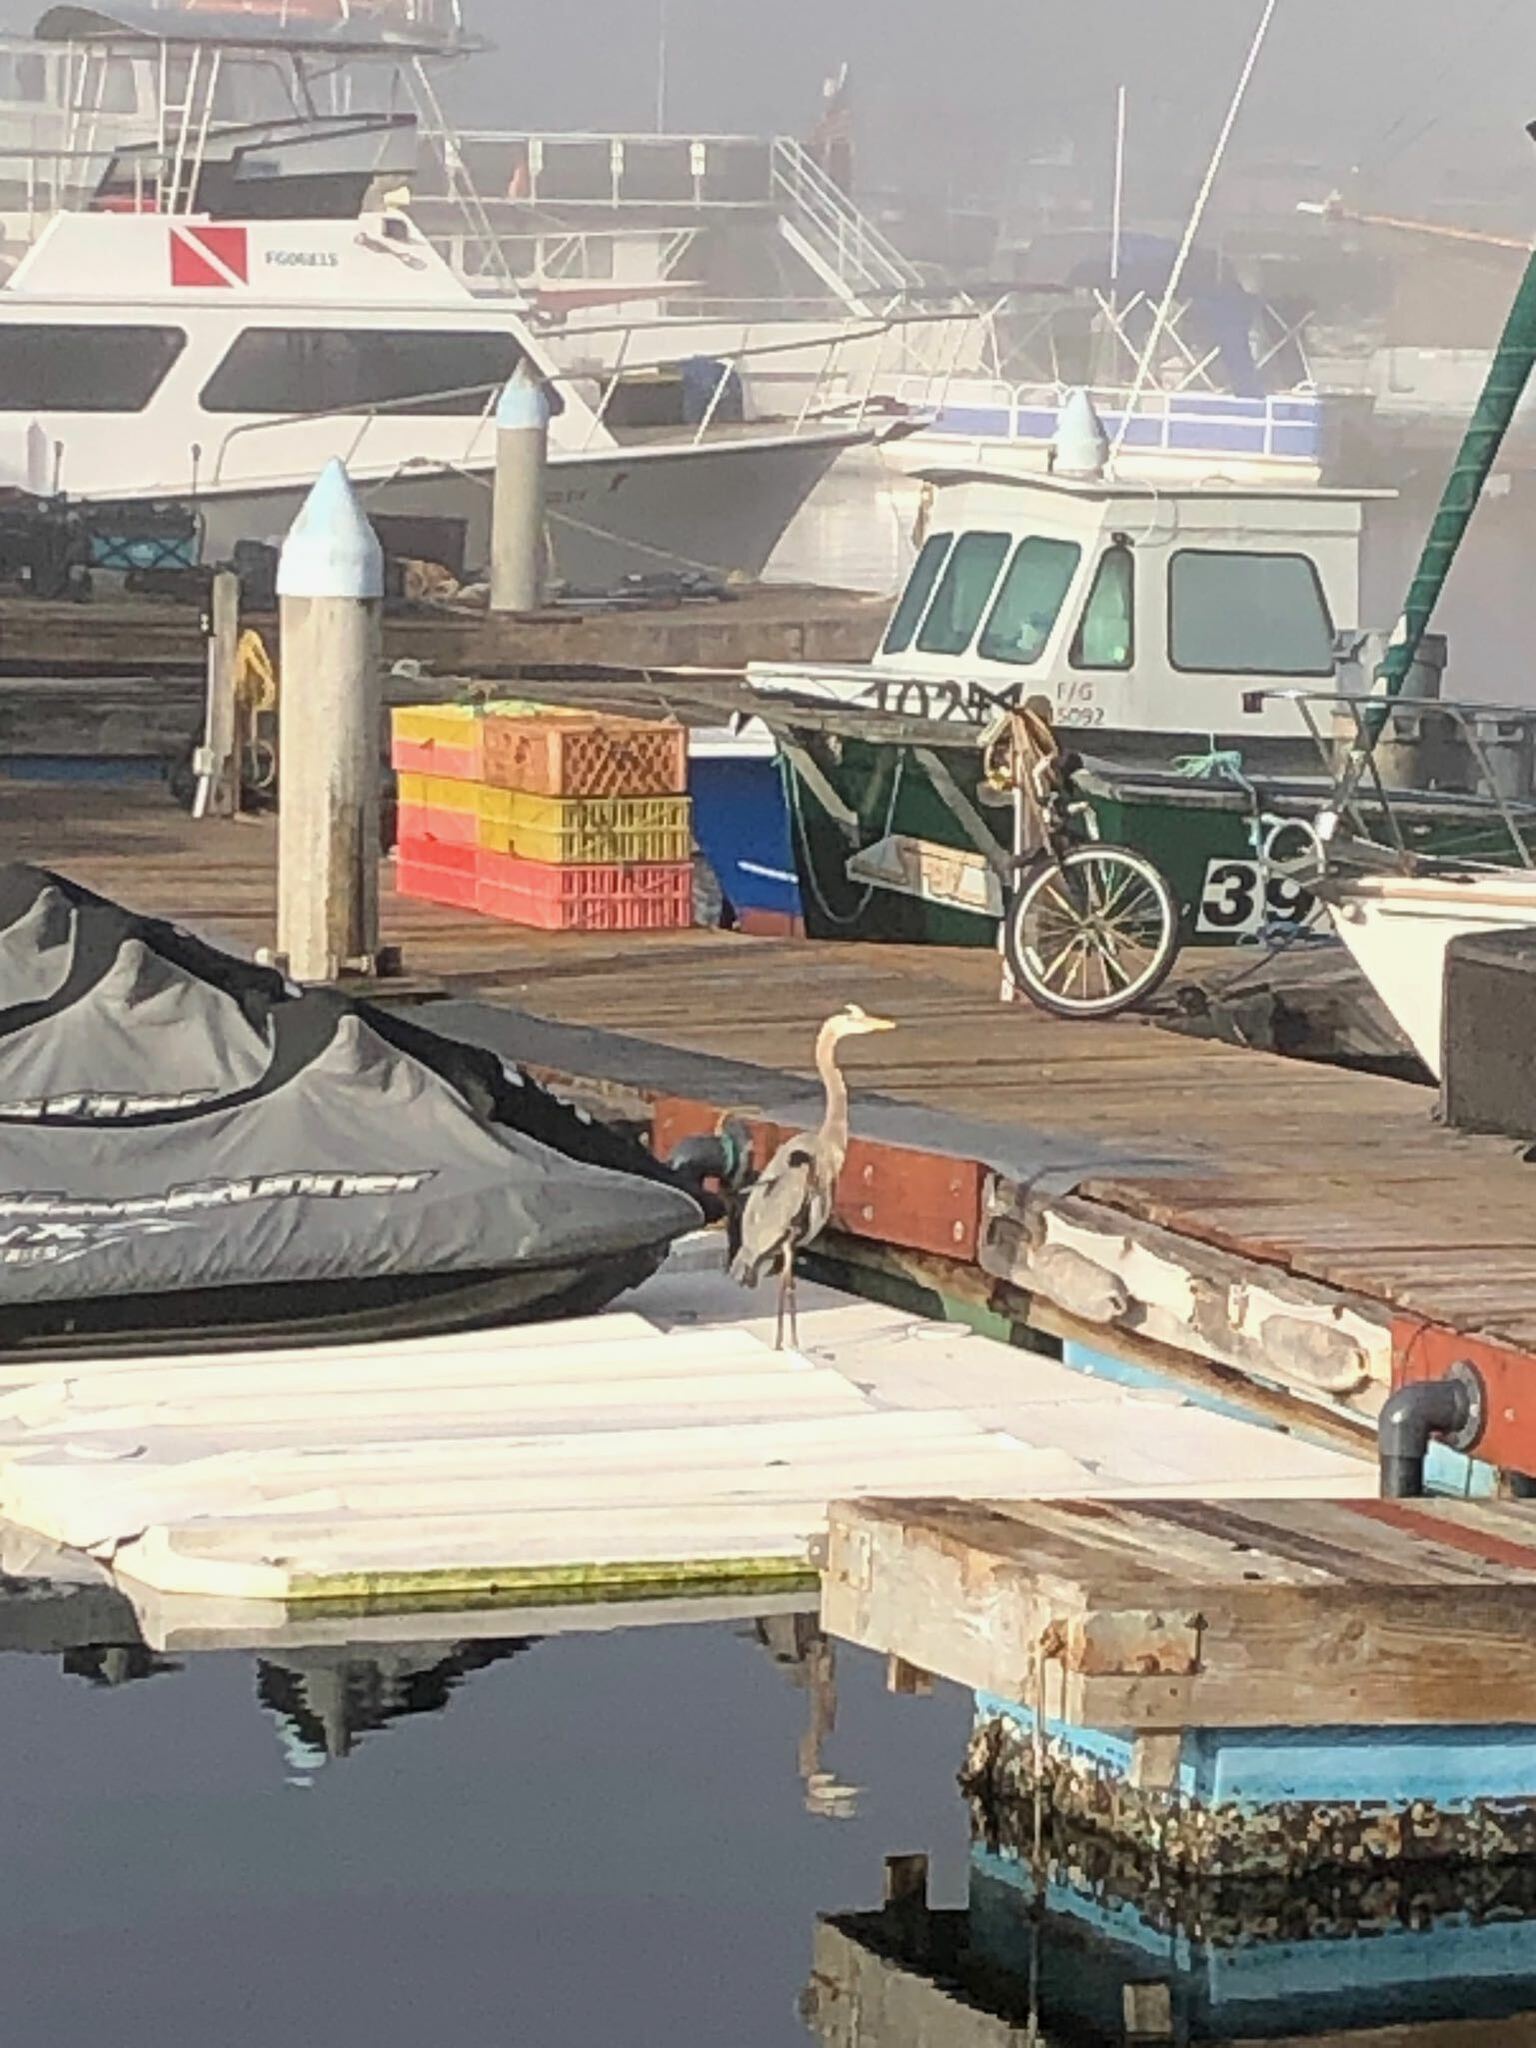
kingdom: Animalia
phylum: Chordata
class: Aves
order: Pelecaniformes
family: Ardeidae
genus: Ardea
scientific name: Ardea herodias
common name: Great blue heron
